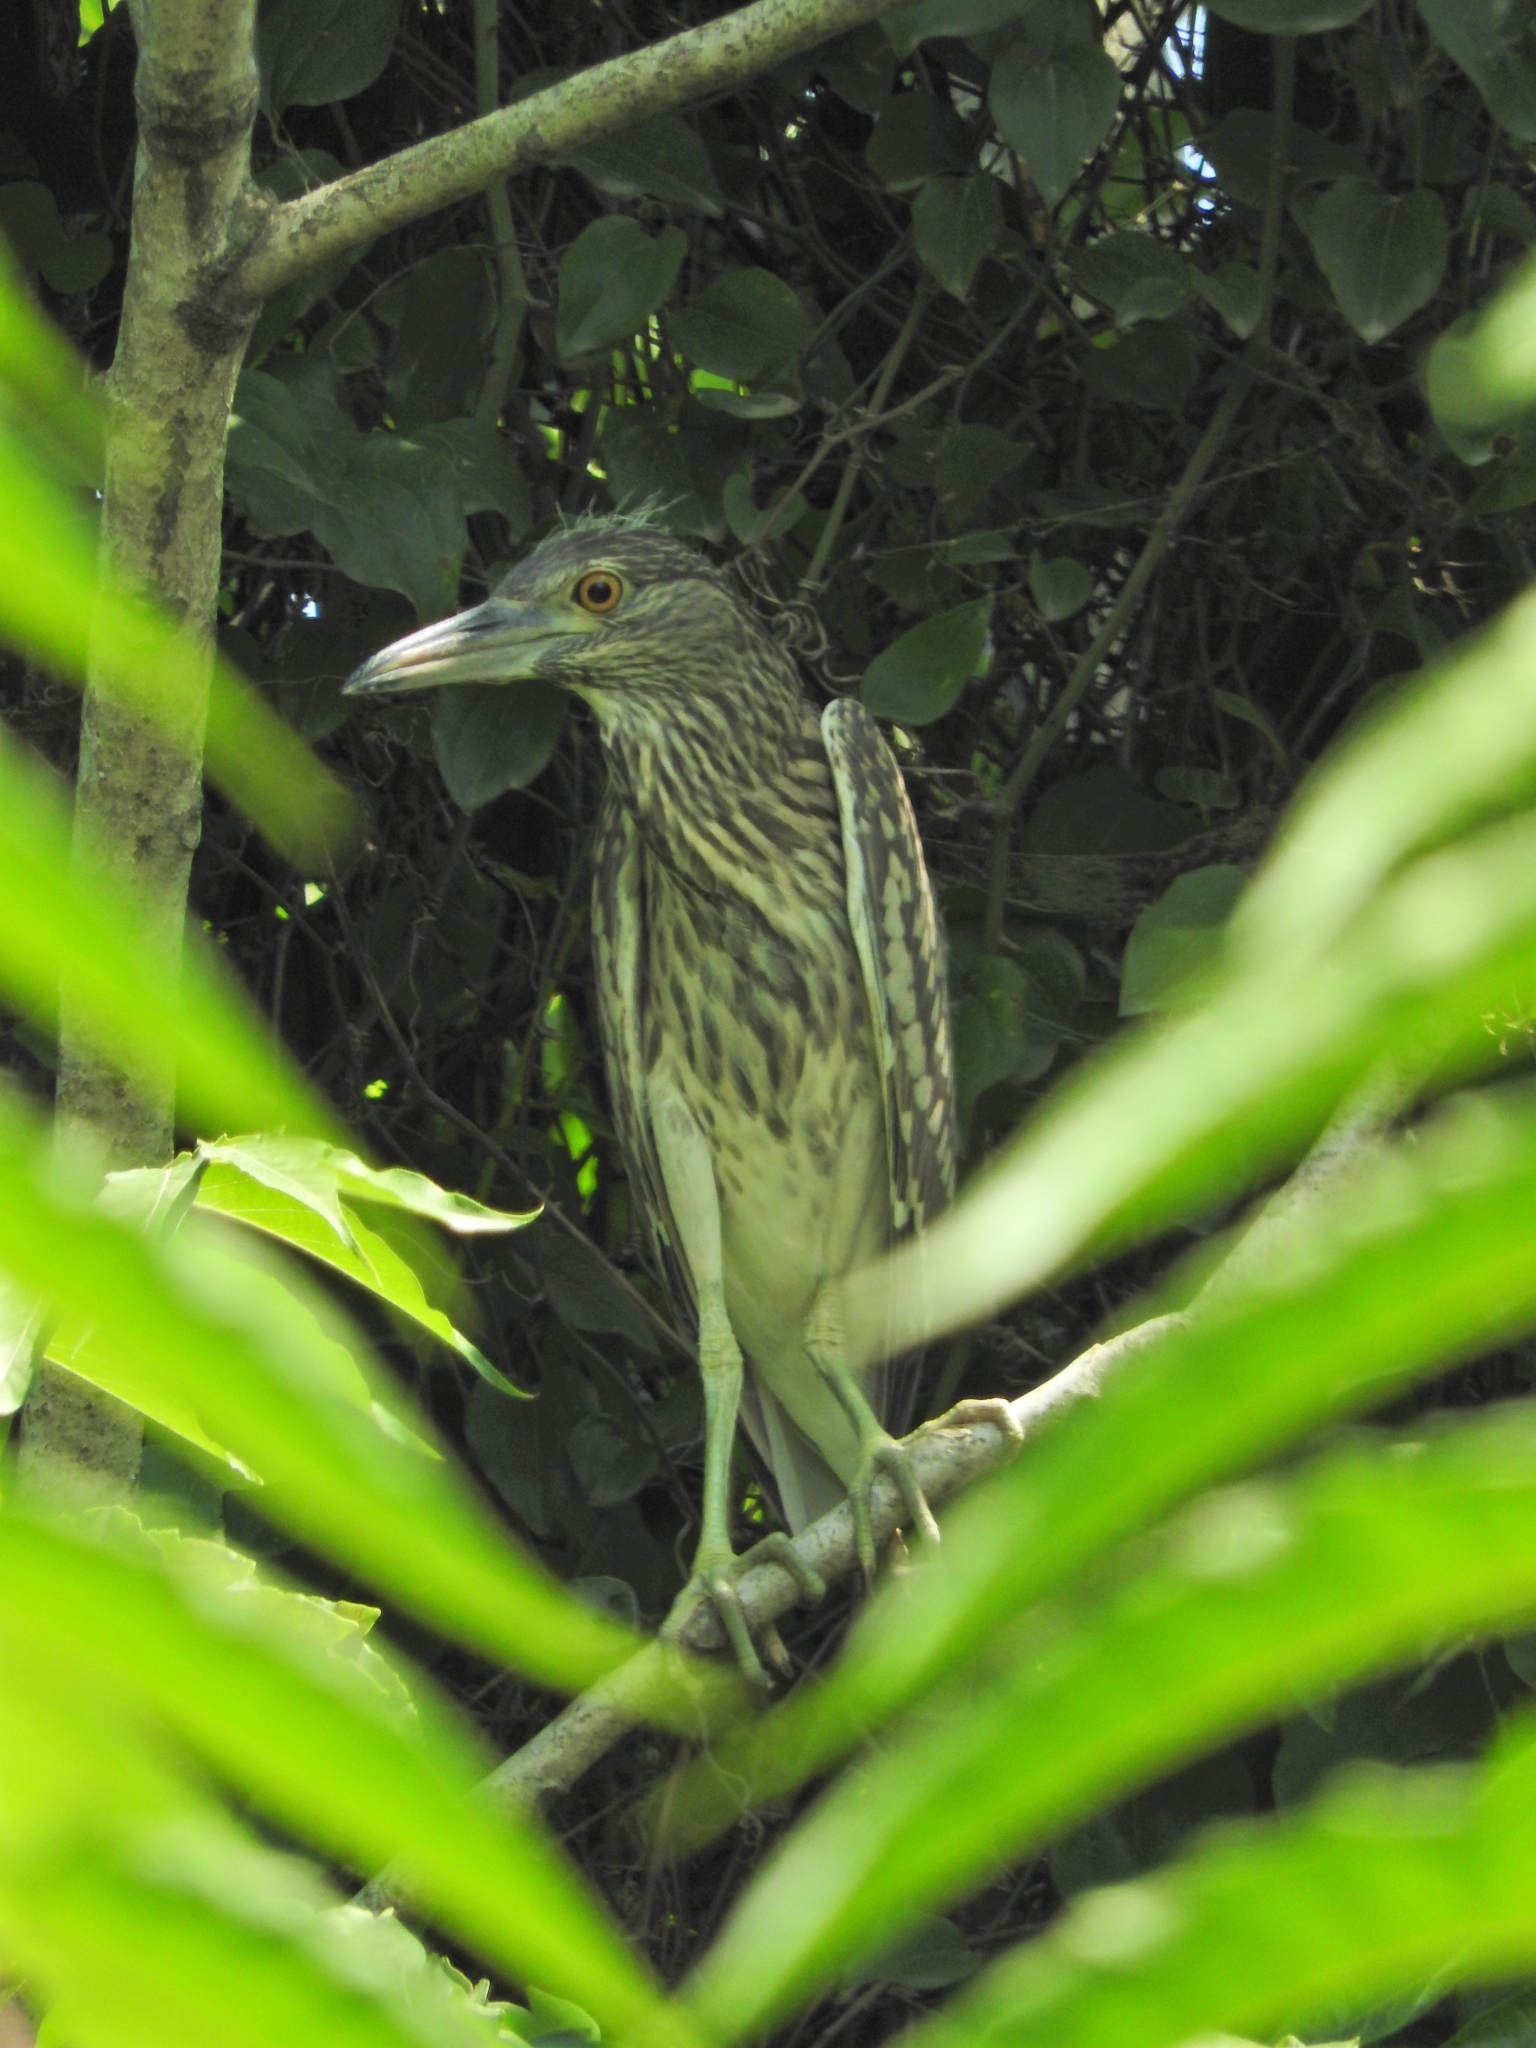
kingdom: Animalia
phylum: Chordata
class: Aves
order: Pelecaniformes
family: Ardeidae
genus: Nycticorax
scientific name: Nycticorax nycticorax
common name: Black-crowned night heron
